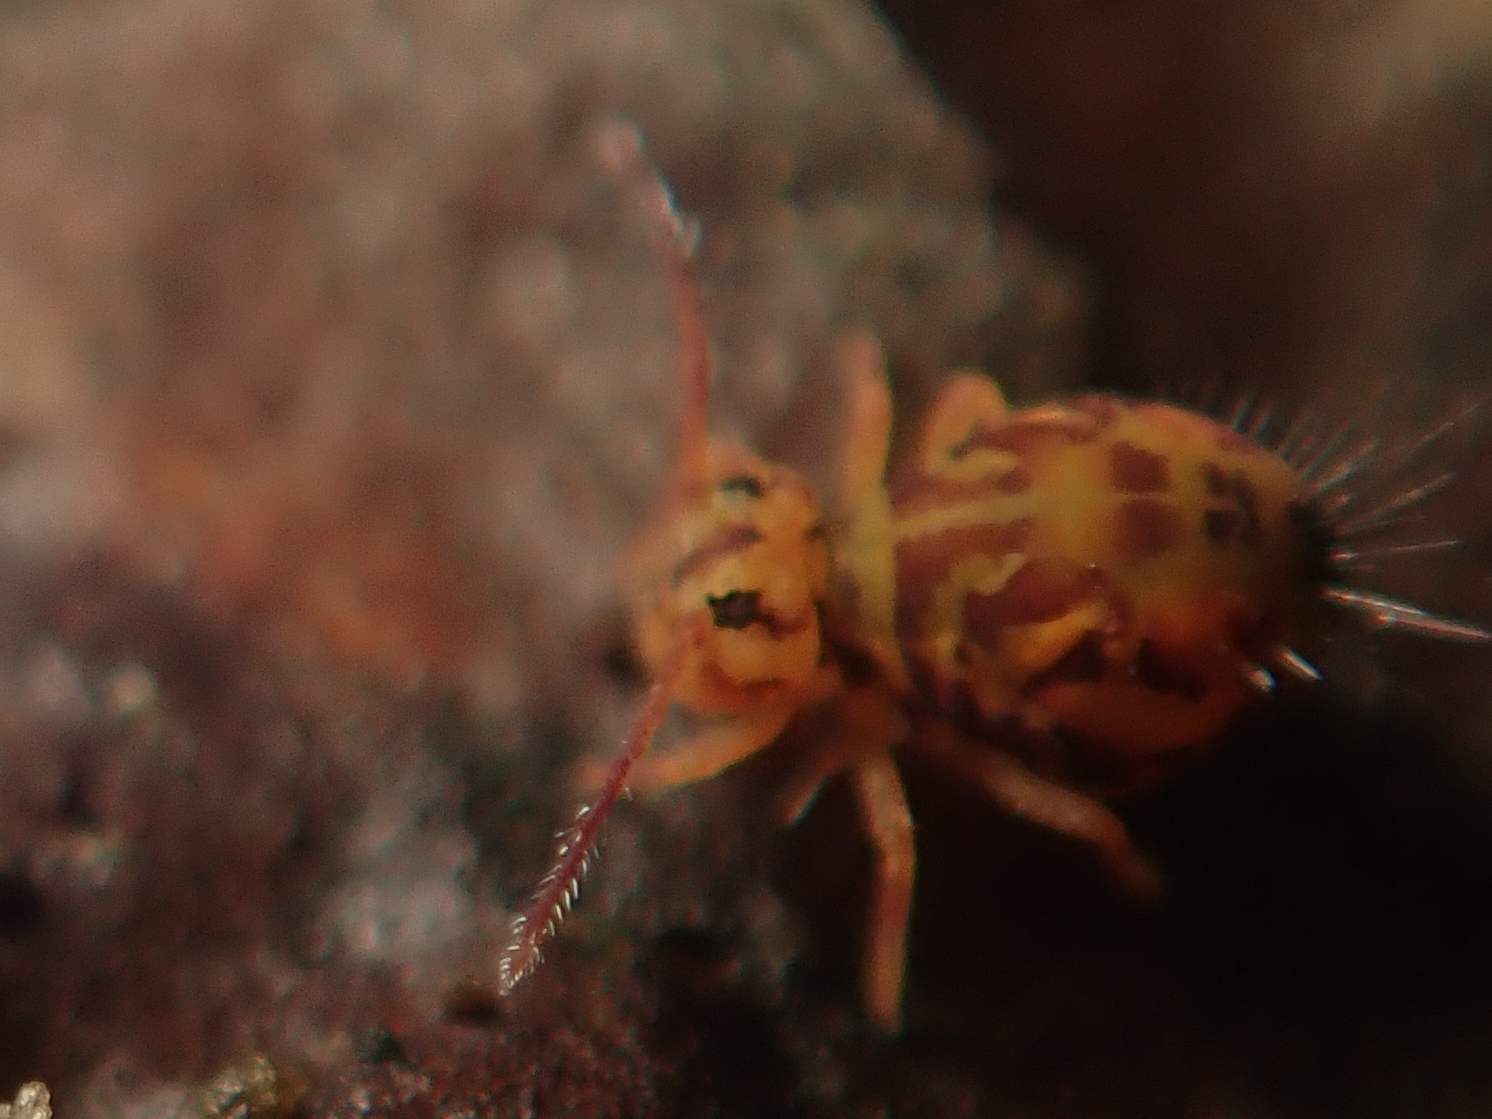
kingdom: Animalia
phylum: Arthropoda
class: Collembola
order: Symphypleona
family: Dicyrtomidae
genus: Dicyrtomina
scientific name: Dicyrtomina ornata
